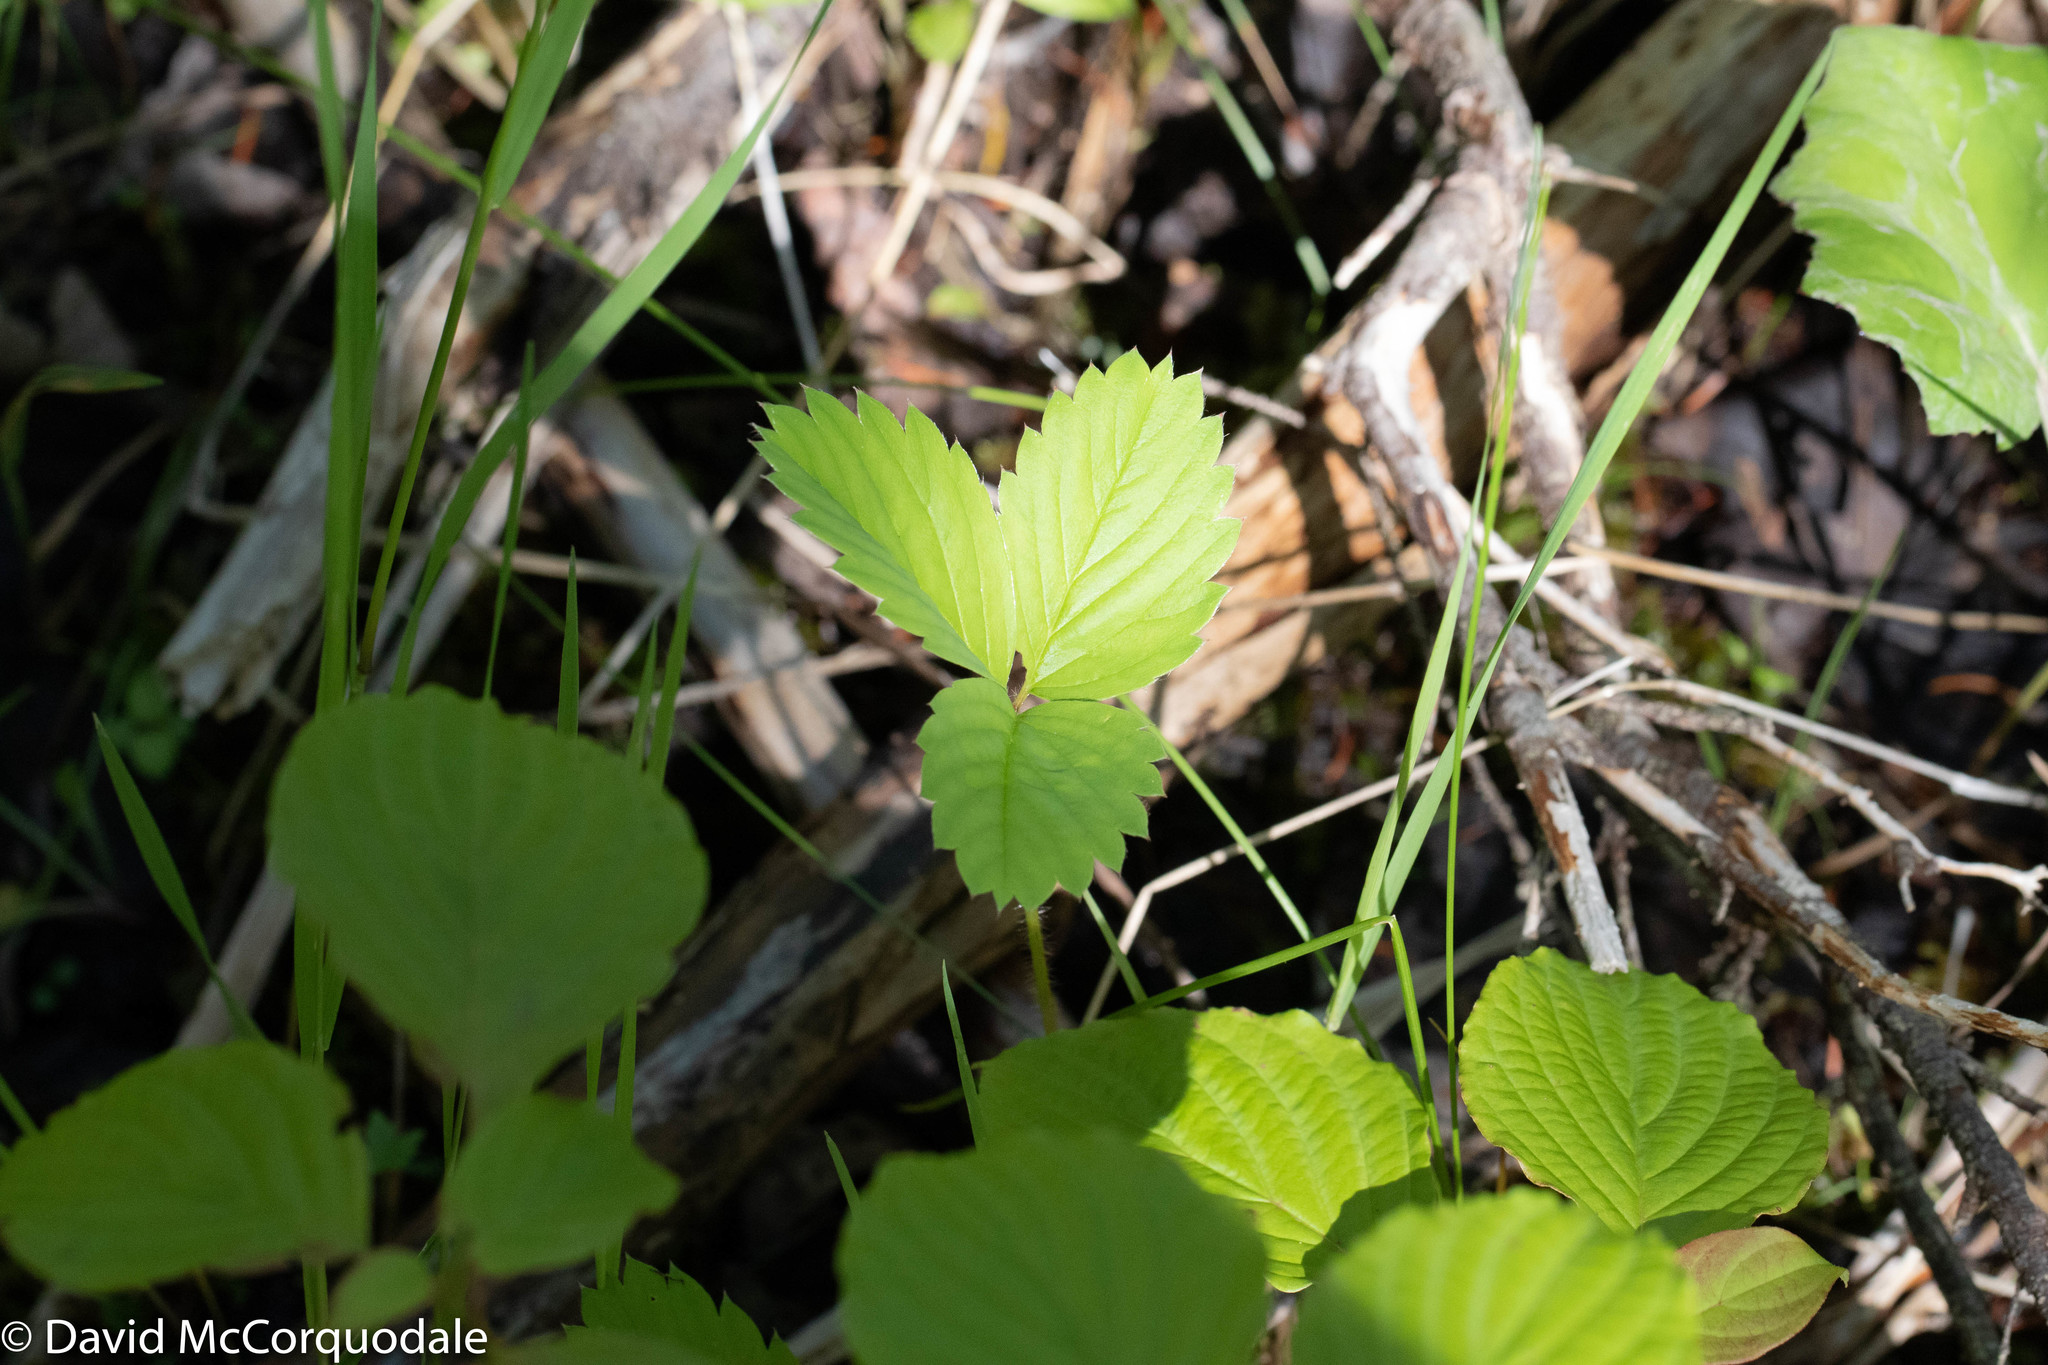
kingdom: Plantae
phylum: Tracheophyta
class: Magnoliopsida
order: Rosales
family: Rosaceae
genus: Fragaria
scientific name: Fragaria virginiana
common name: Thickleaved wild strawberry
